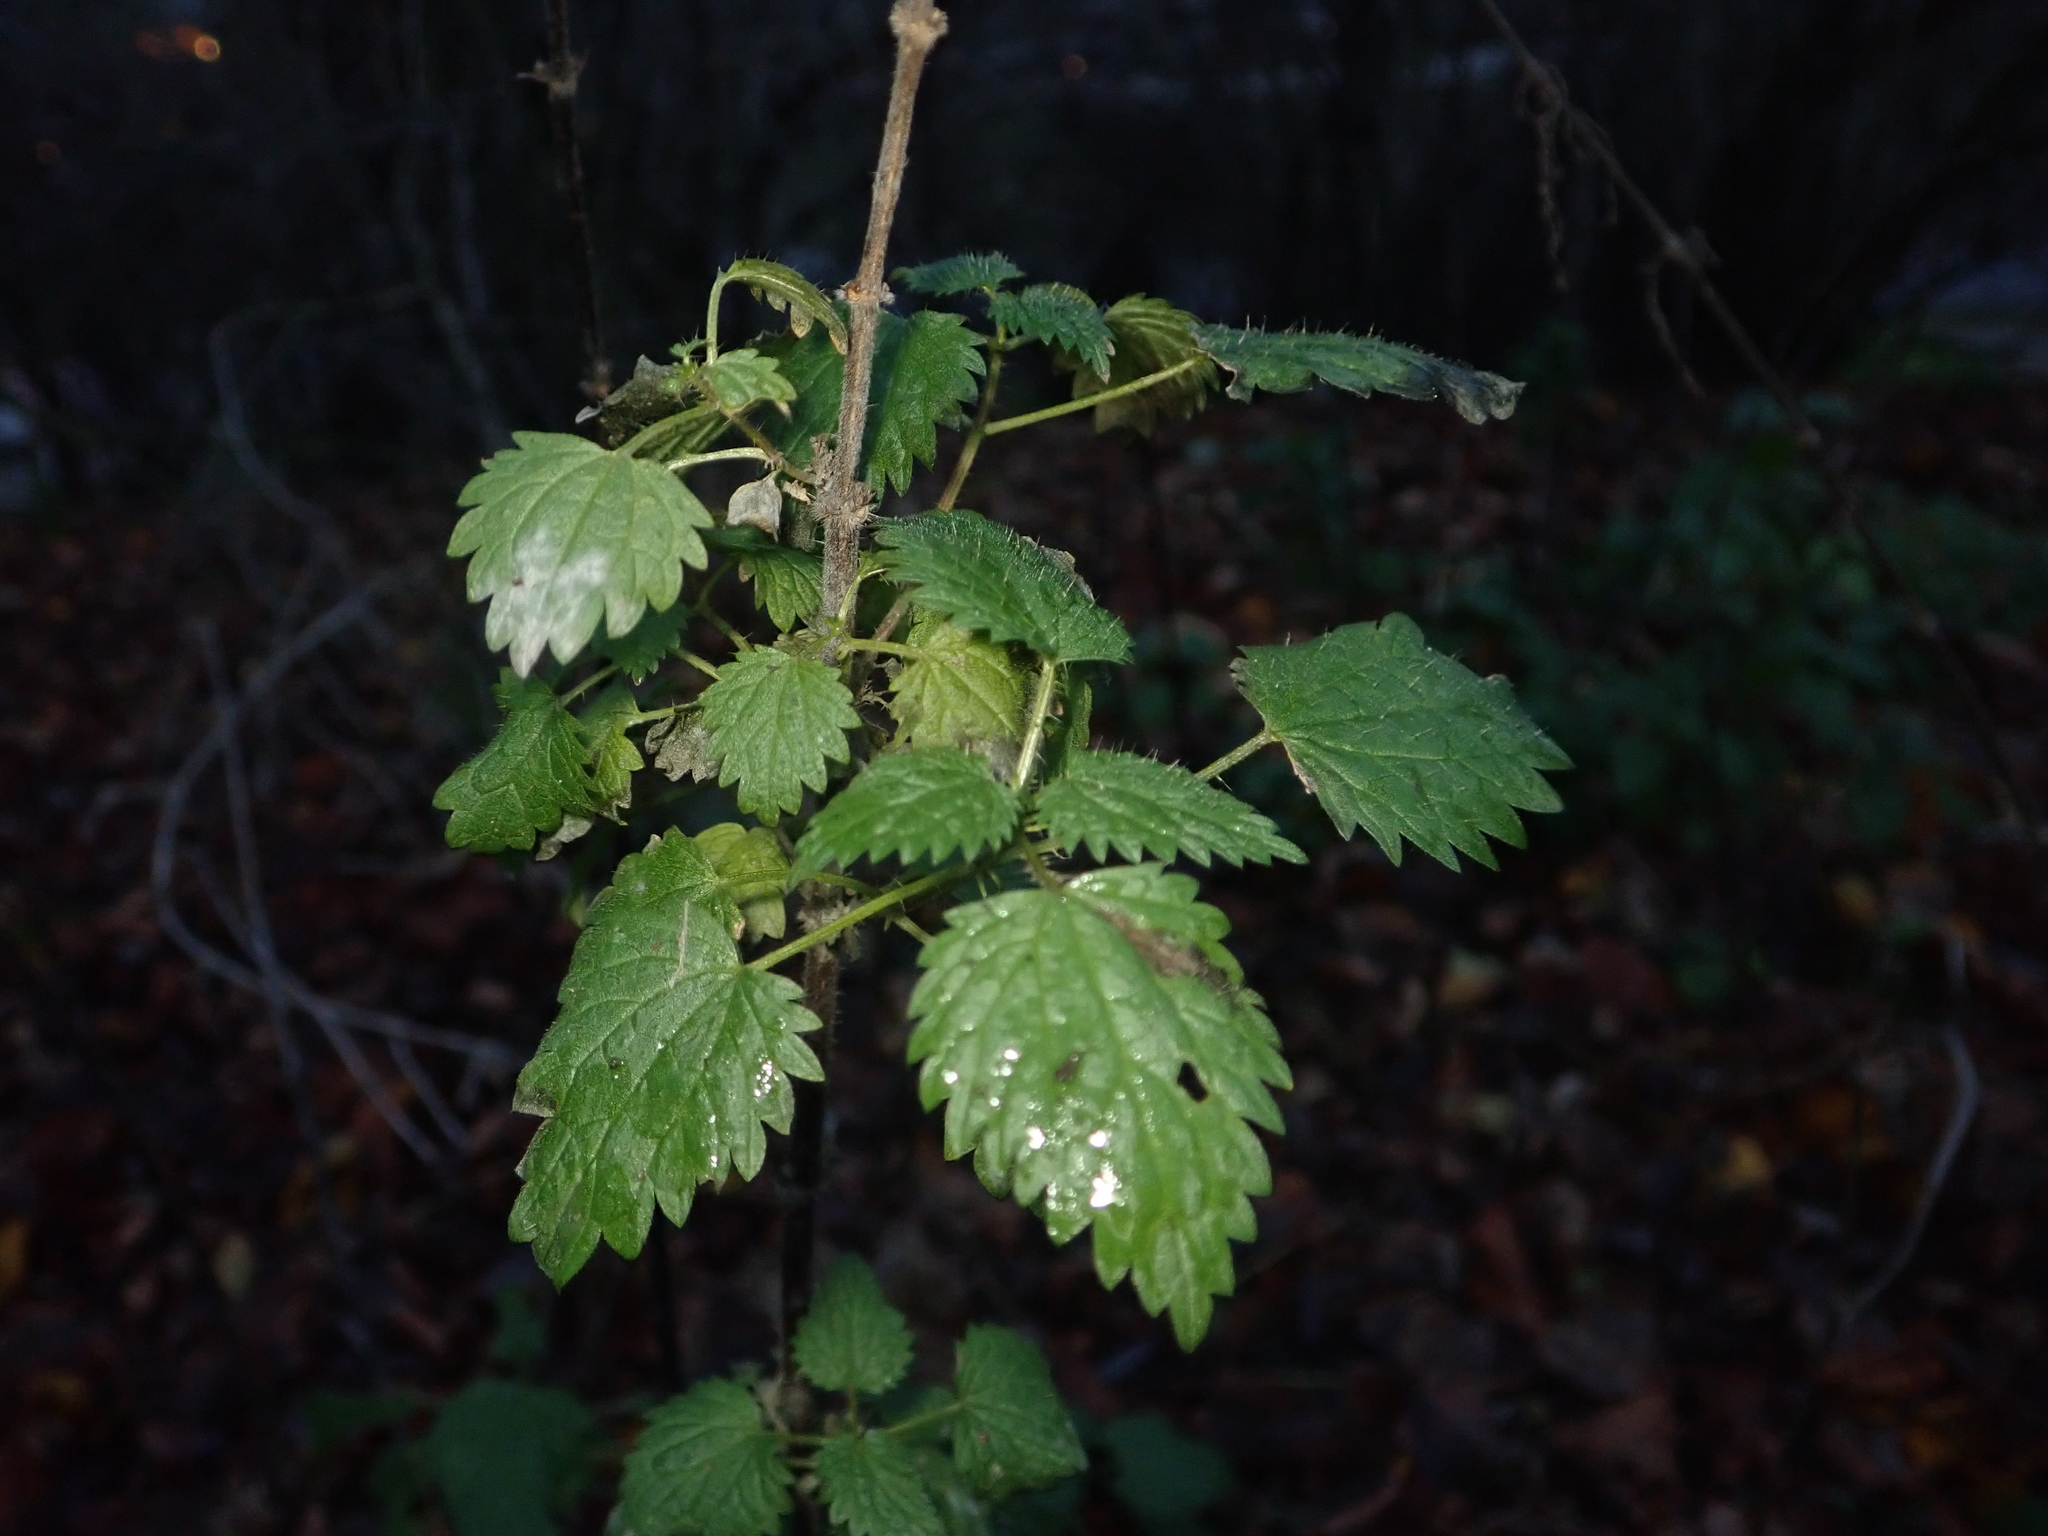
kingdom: Plantae
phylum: Tracheophyta
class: Magnoliopsida
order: Rosales
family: Urticaceae
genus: Urtica
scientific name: Urtica dioica
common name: Common nettle
